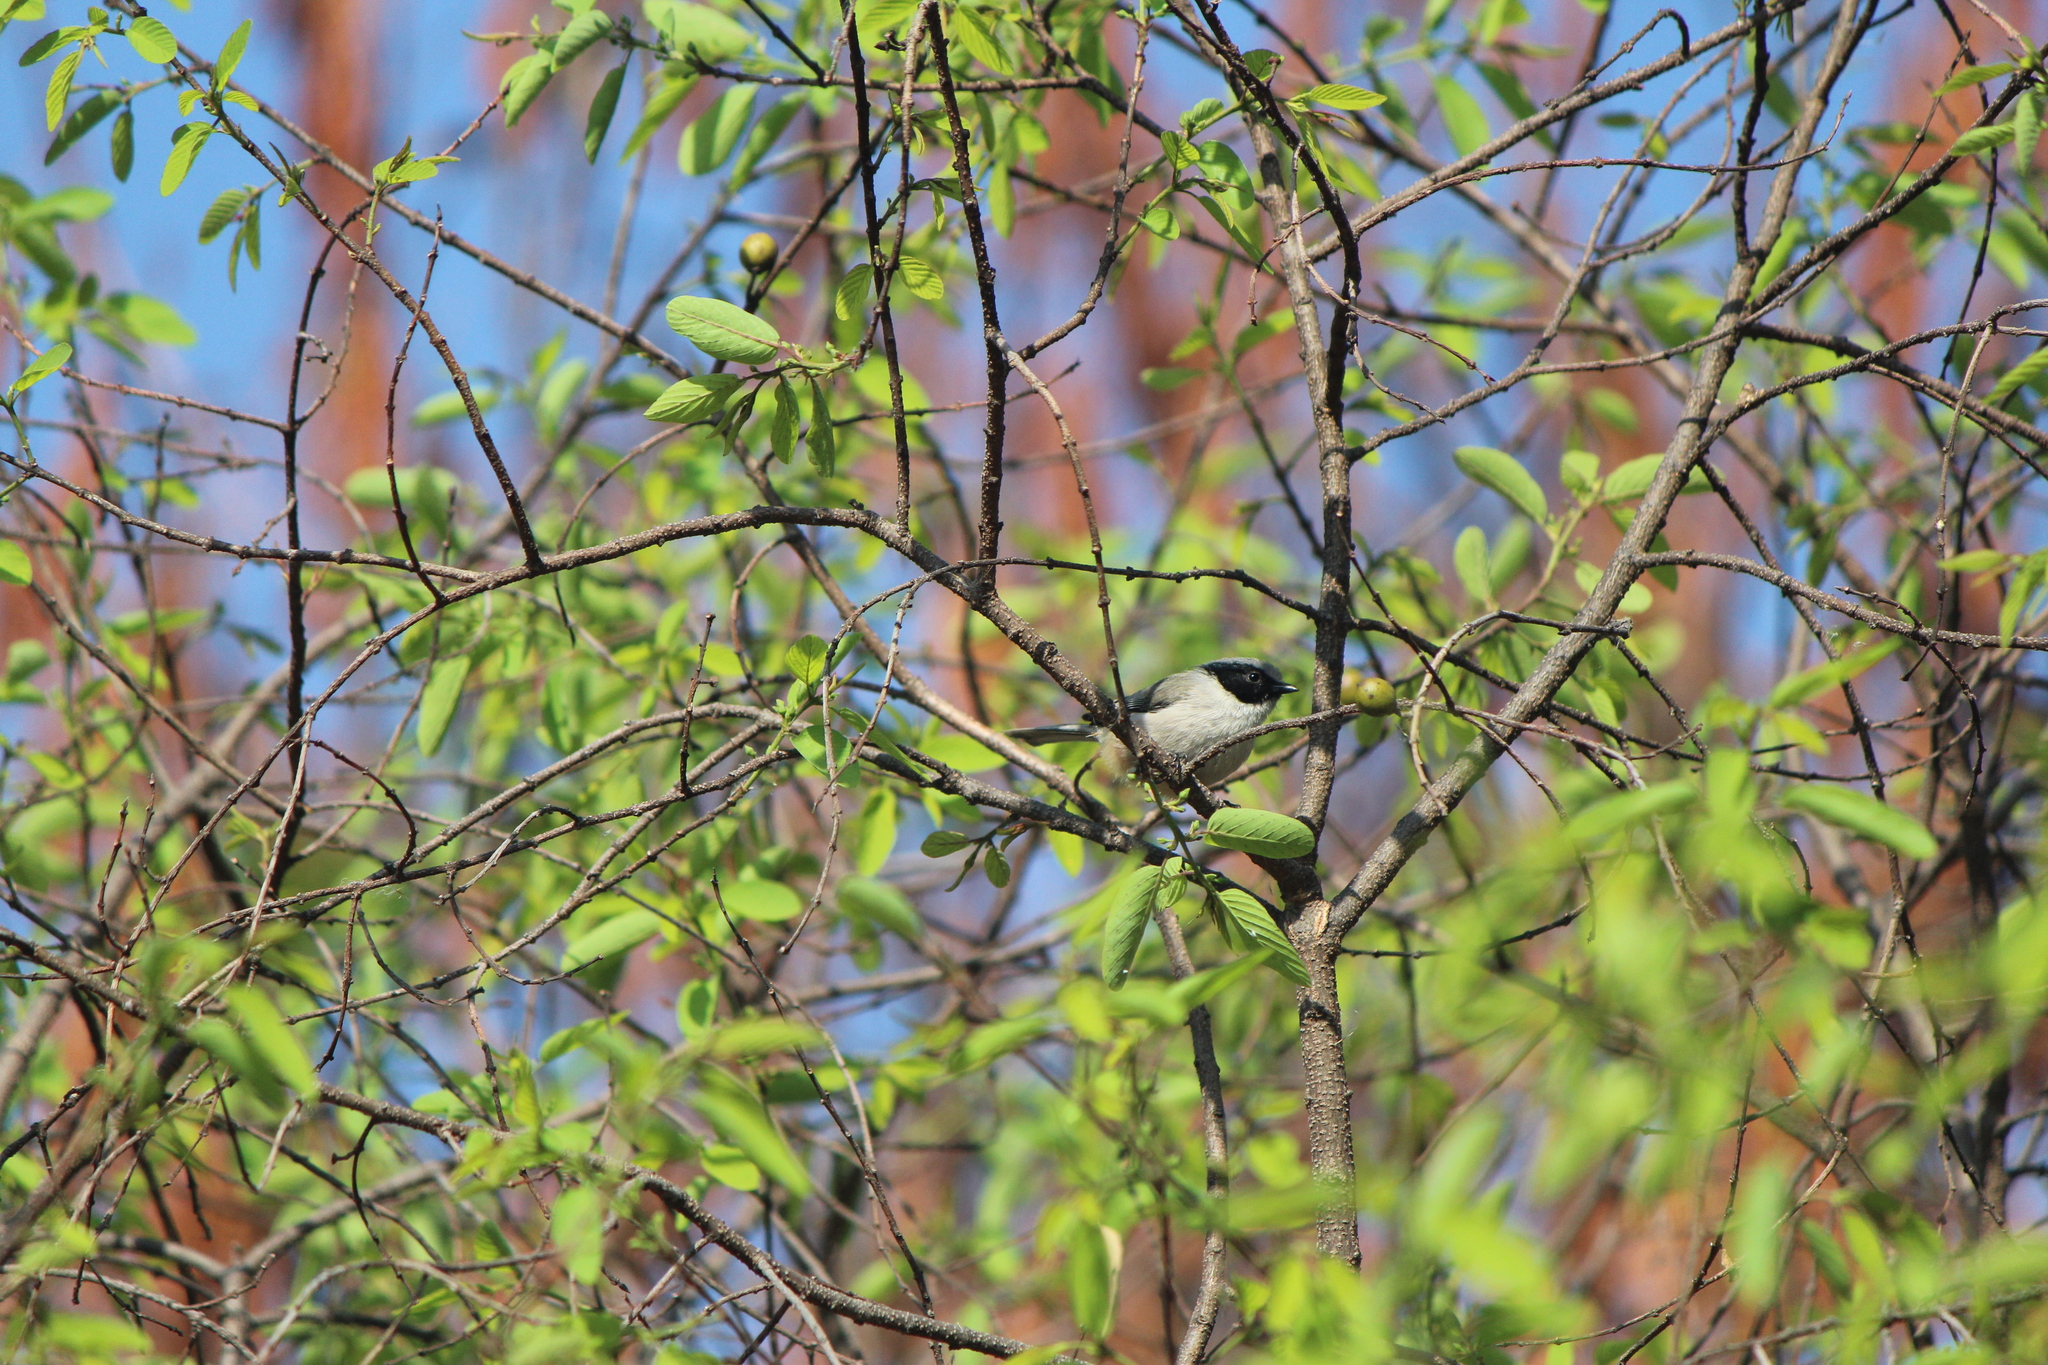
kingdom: Animalia
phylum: Chordata
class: Aves
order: Passeriformes
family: Aegithalidae
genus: Psaltriparus
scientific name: Psaltriparus minimus
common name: American bushtit
